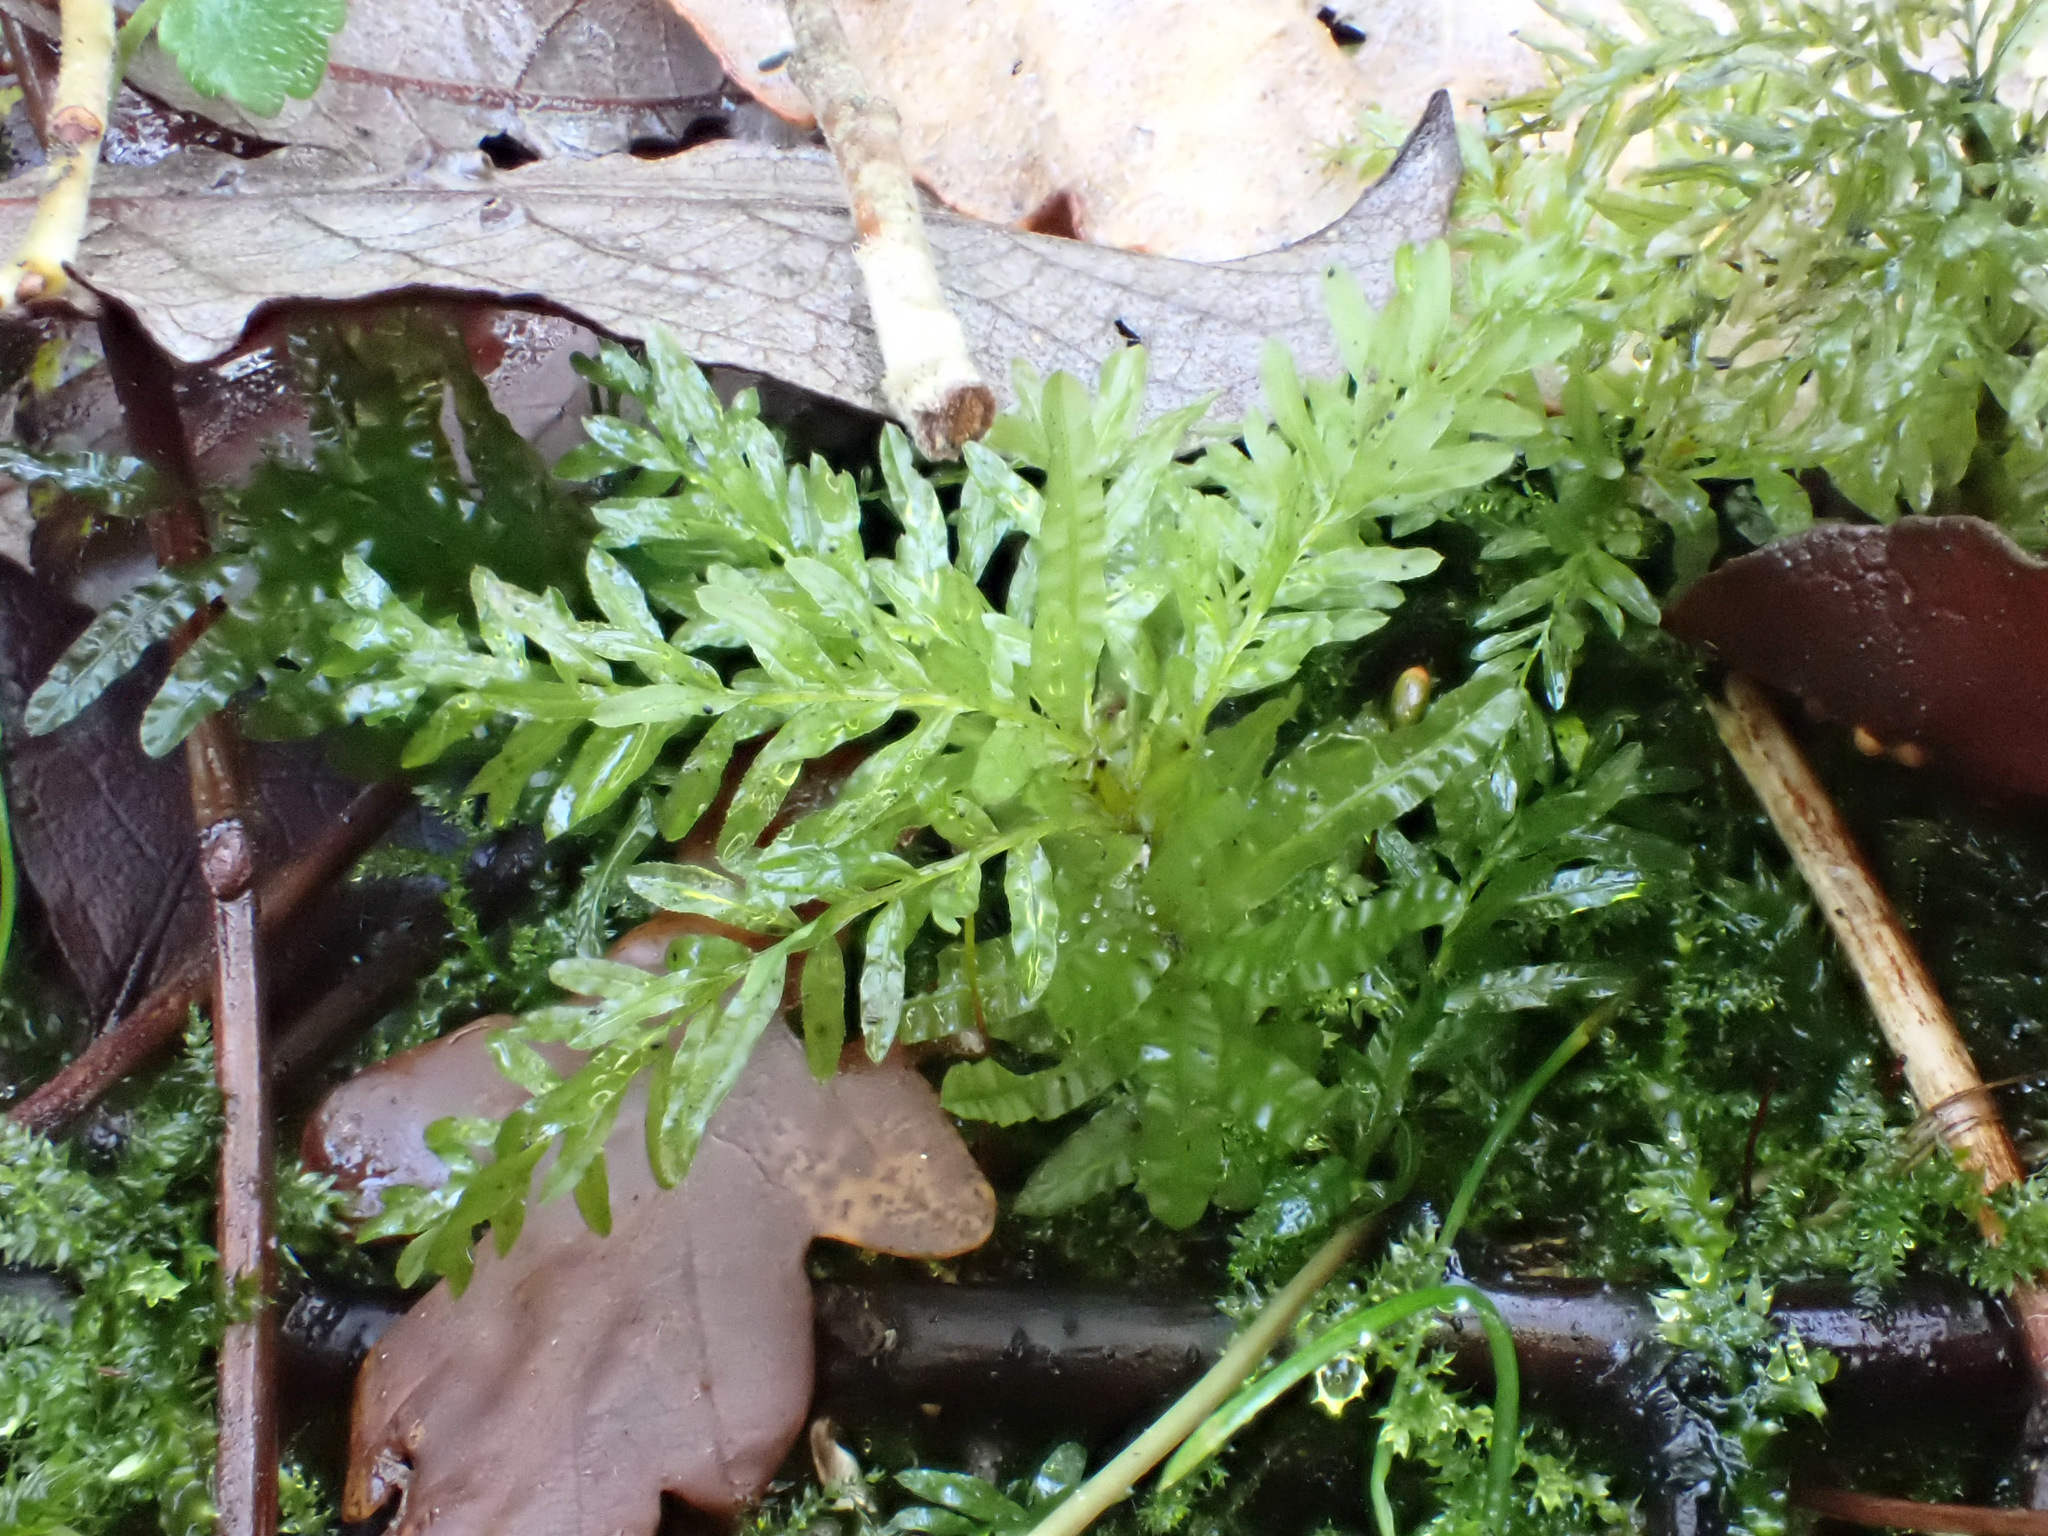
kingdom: Plantae
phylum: Bryophyta
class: Bryopsida
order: Bryales
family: Mniaceae
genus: Plagiomnium
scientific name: Plagiomnium undulatum
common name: Hart's-tongue thyme-moss
